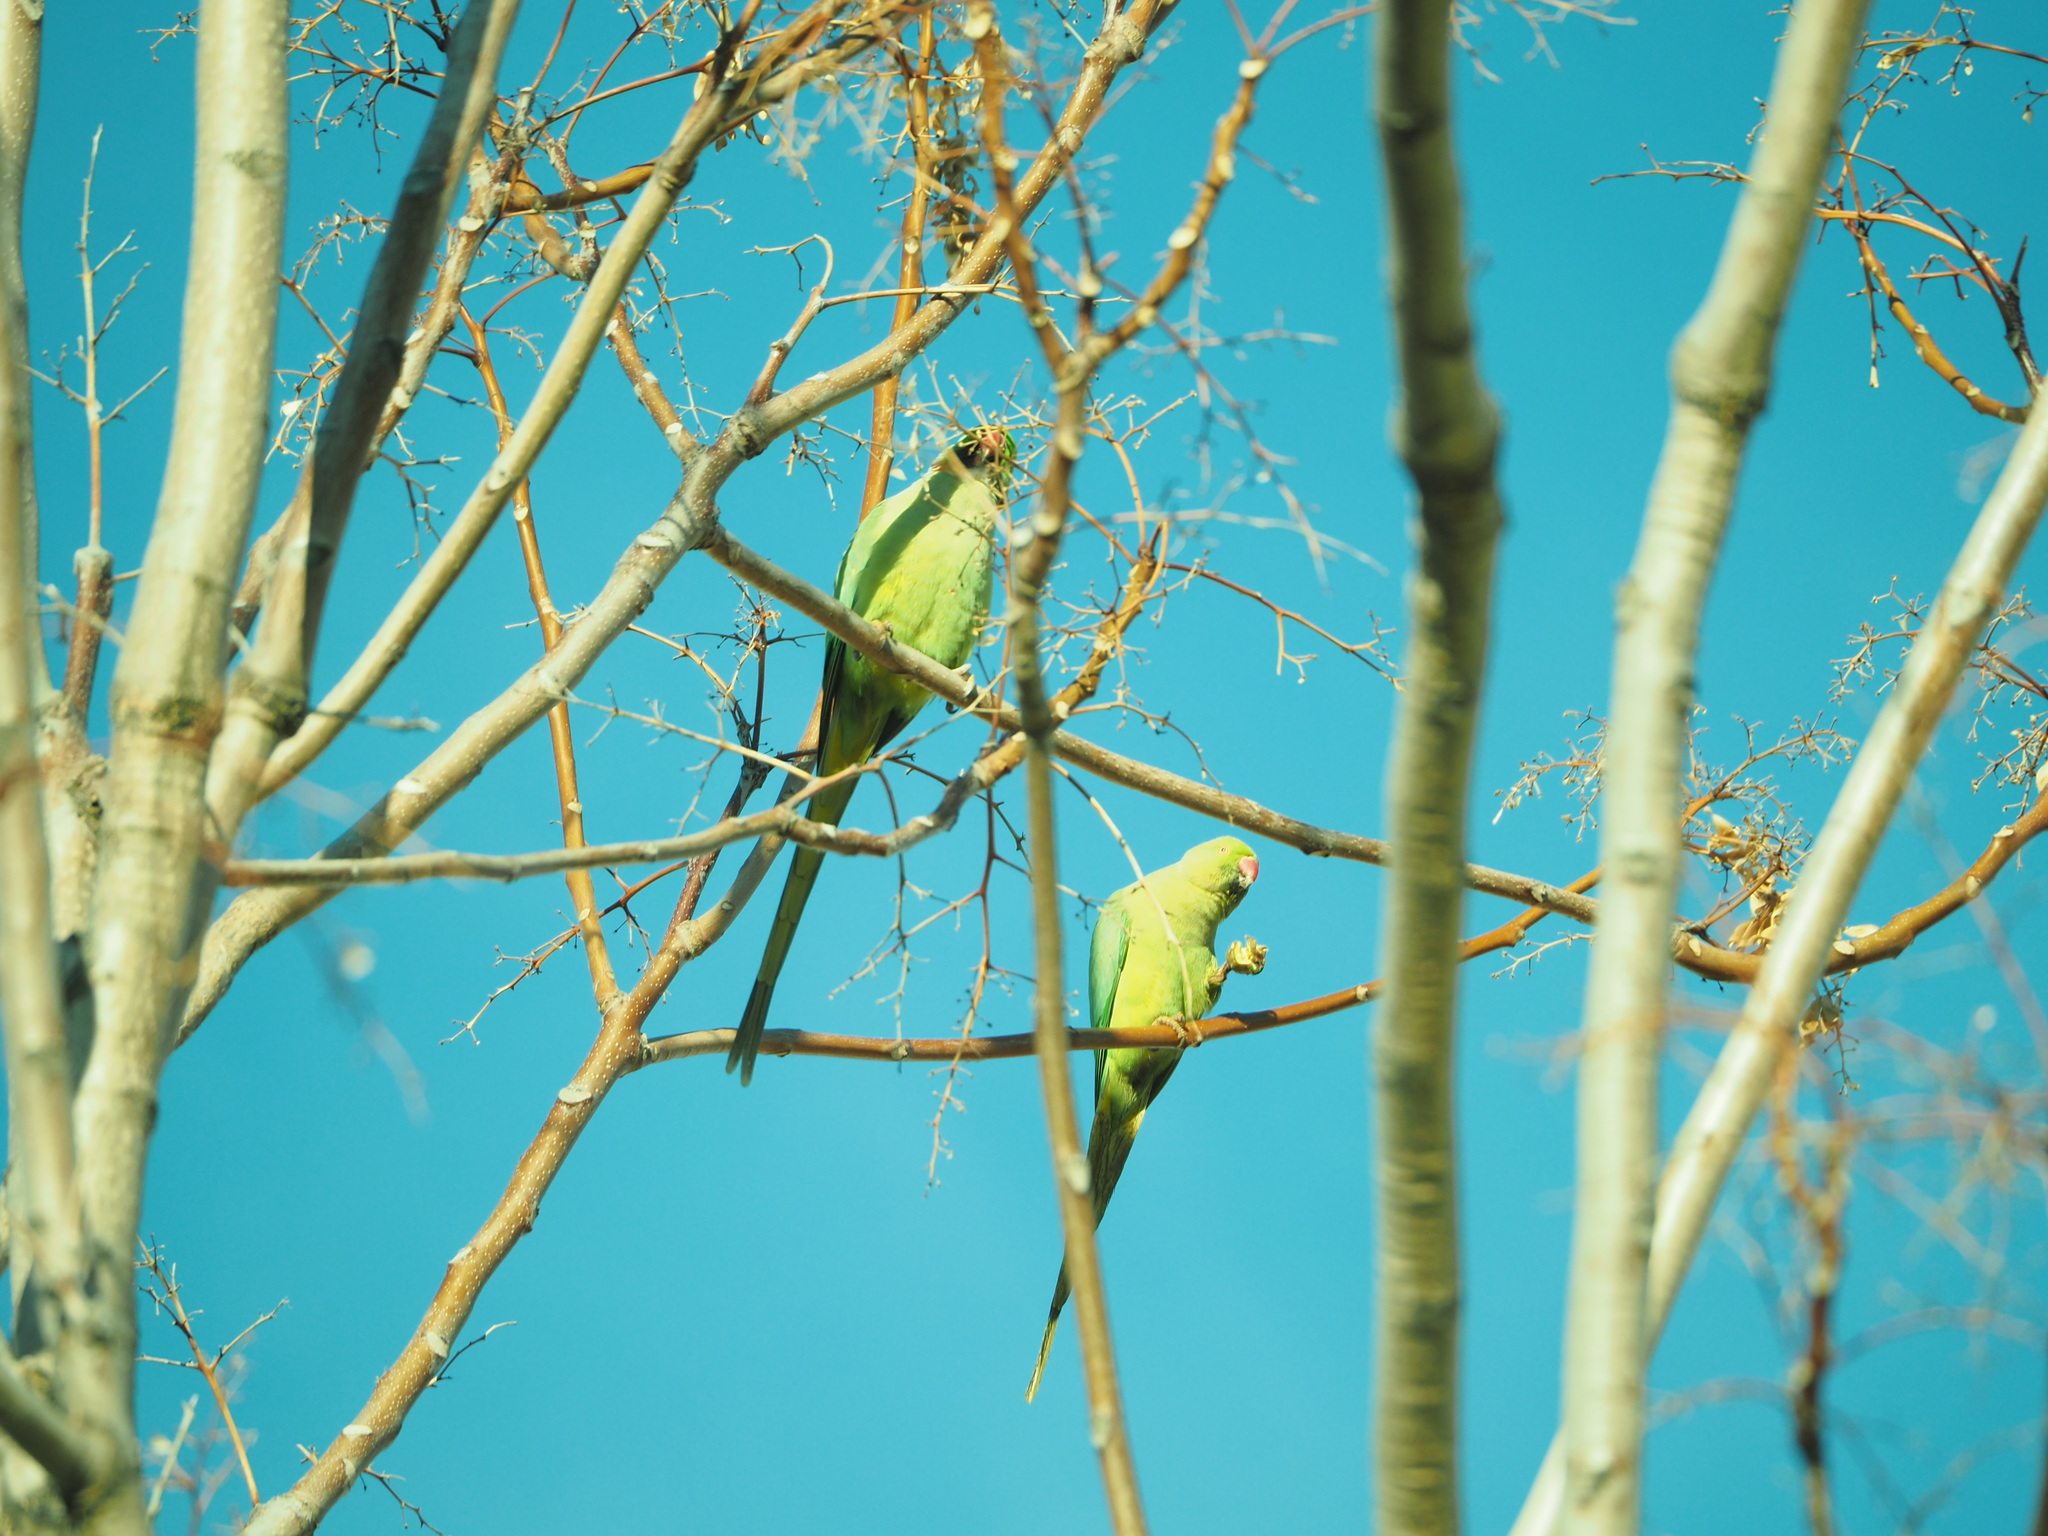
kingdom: Animalia
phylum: Chordata
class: Aves
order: Psittaciformes
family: Psittacidae
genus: Psittacula
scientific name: Psittacula krameri
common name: Rose-ringed parakeet
